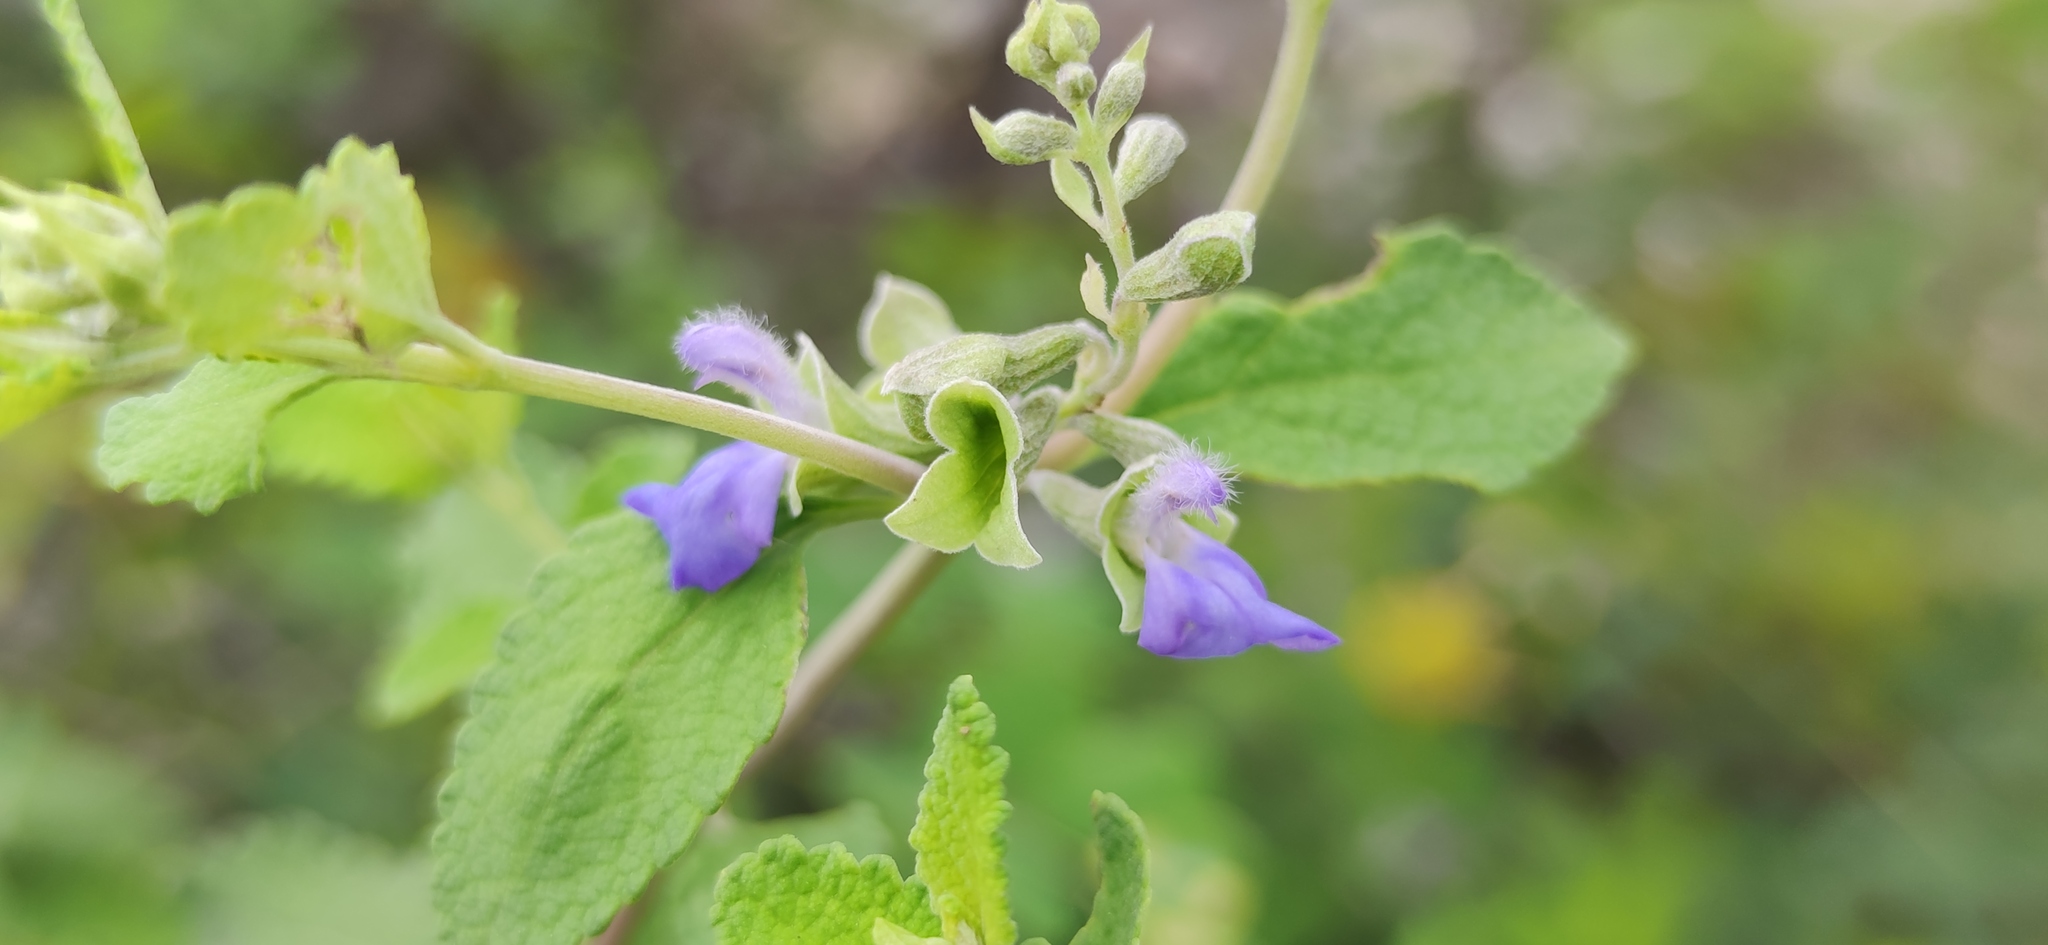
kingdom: Plantae
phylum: Tracheophyta
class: Magnoliopsida
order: Lamiales
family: Lamiaceae
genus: Salvia
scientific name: Salvia ballotiflora
